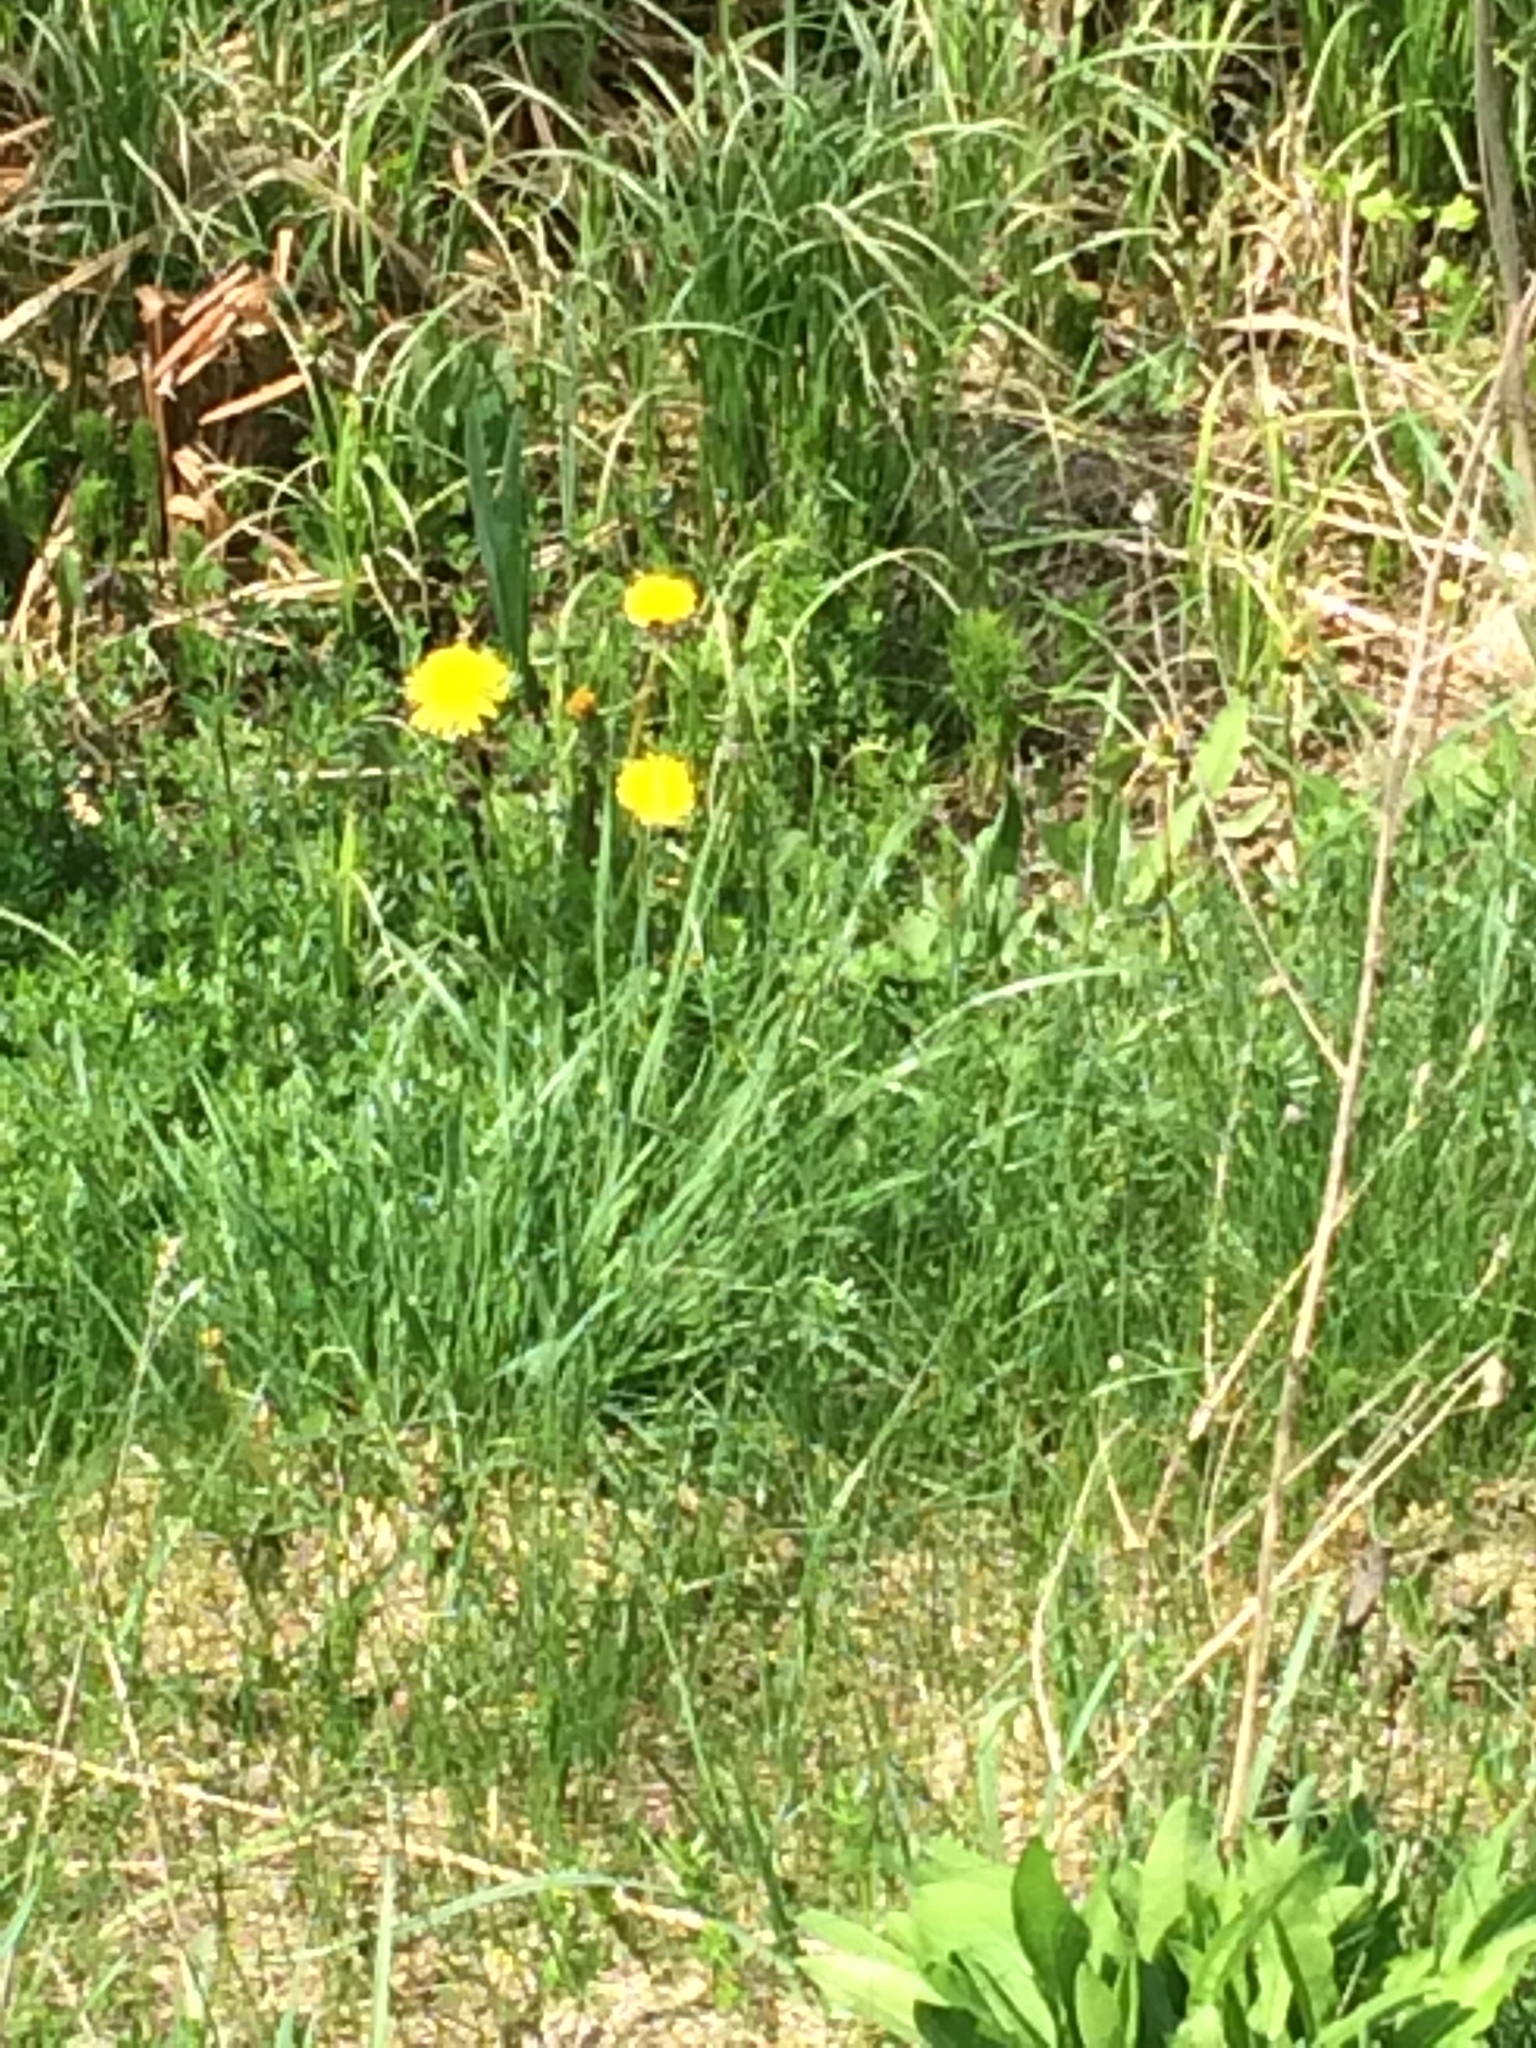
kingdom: Plantae
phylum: Tracheophyta
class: Magnoliopsida
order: Asterales
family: Asteraceae
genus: Taraxacum
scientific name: Taraxacum officinale
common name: Common dandelion
